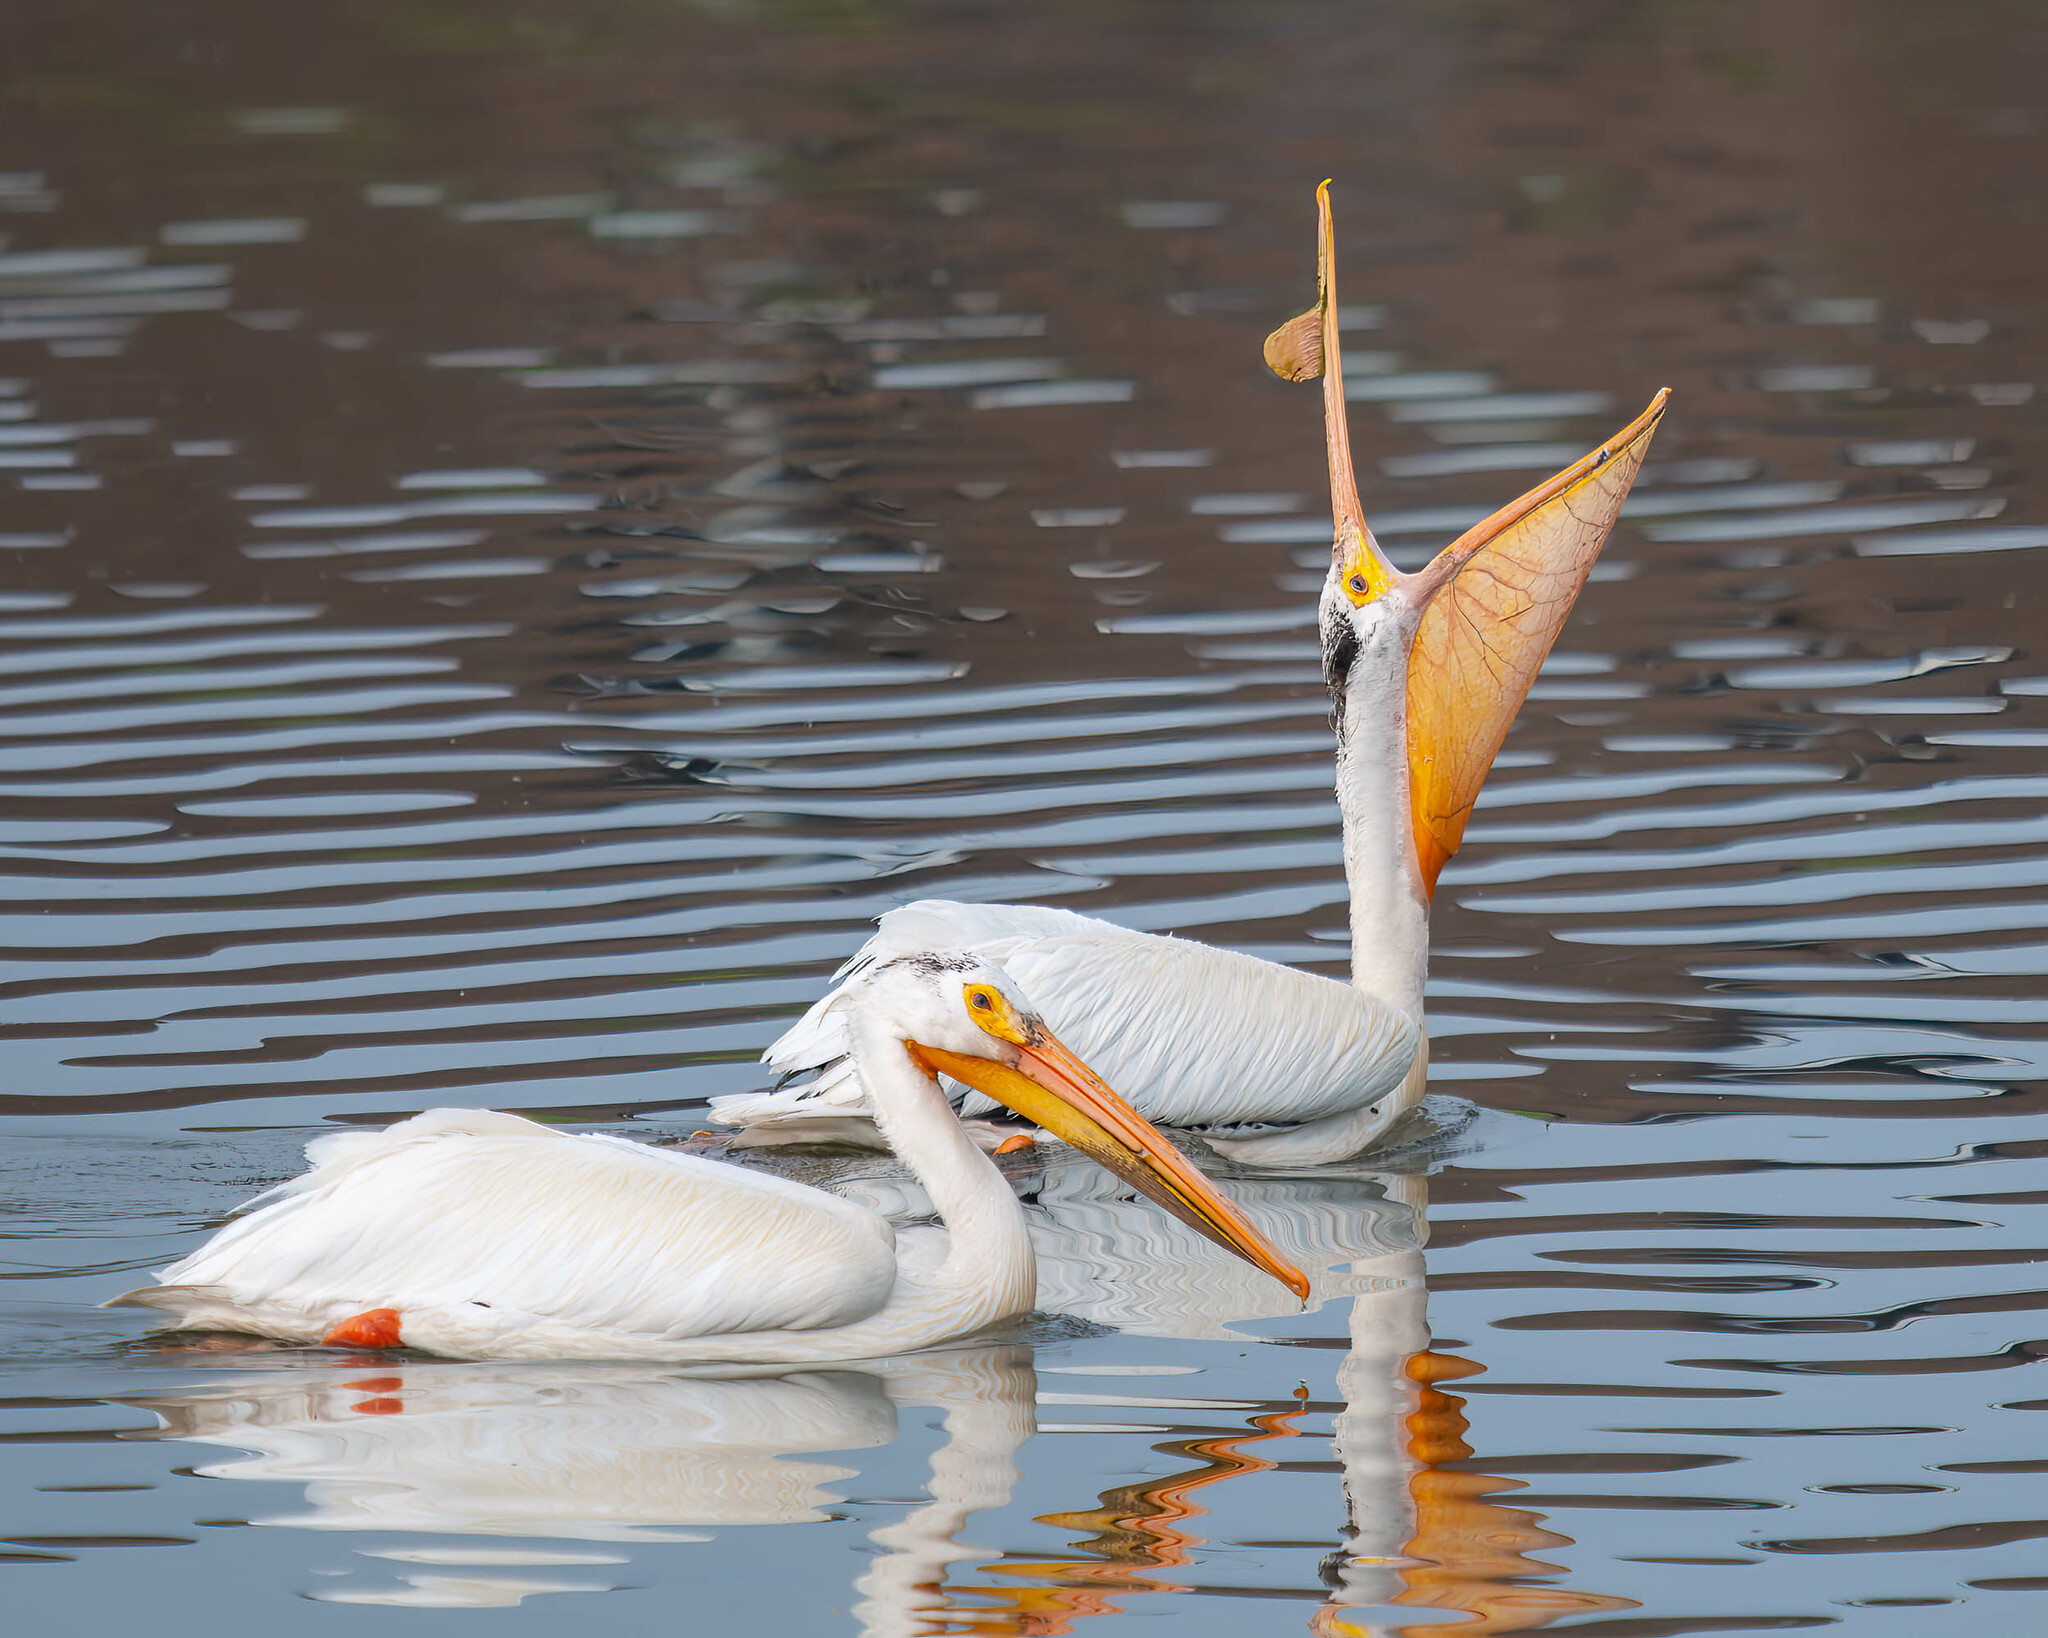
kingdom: Animalia
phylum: Chordata
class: Aves
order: Pelecaniformes
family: Pelecanidae
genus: Pelecanus
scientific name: Pelecanus erythrorhynchos
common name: American white pelican
